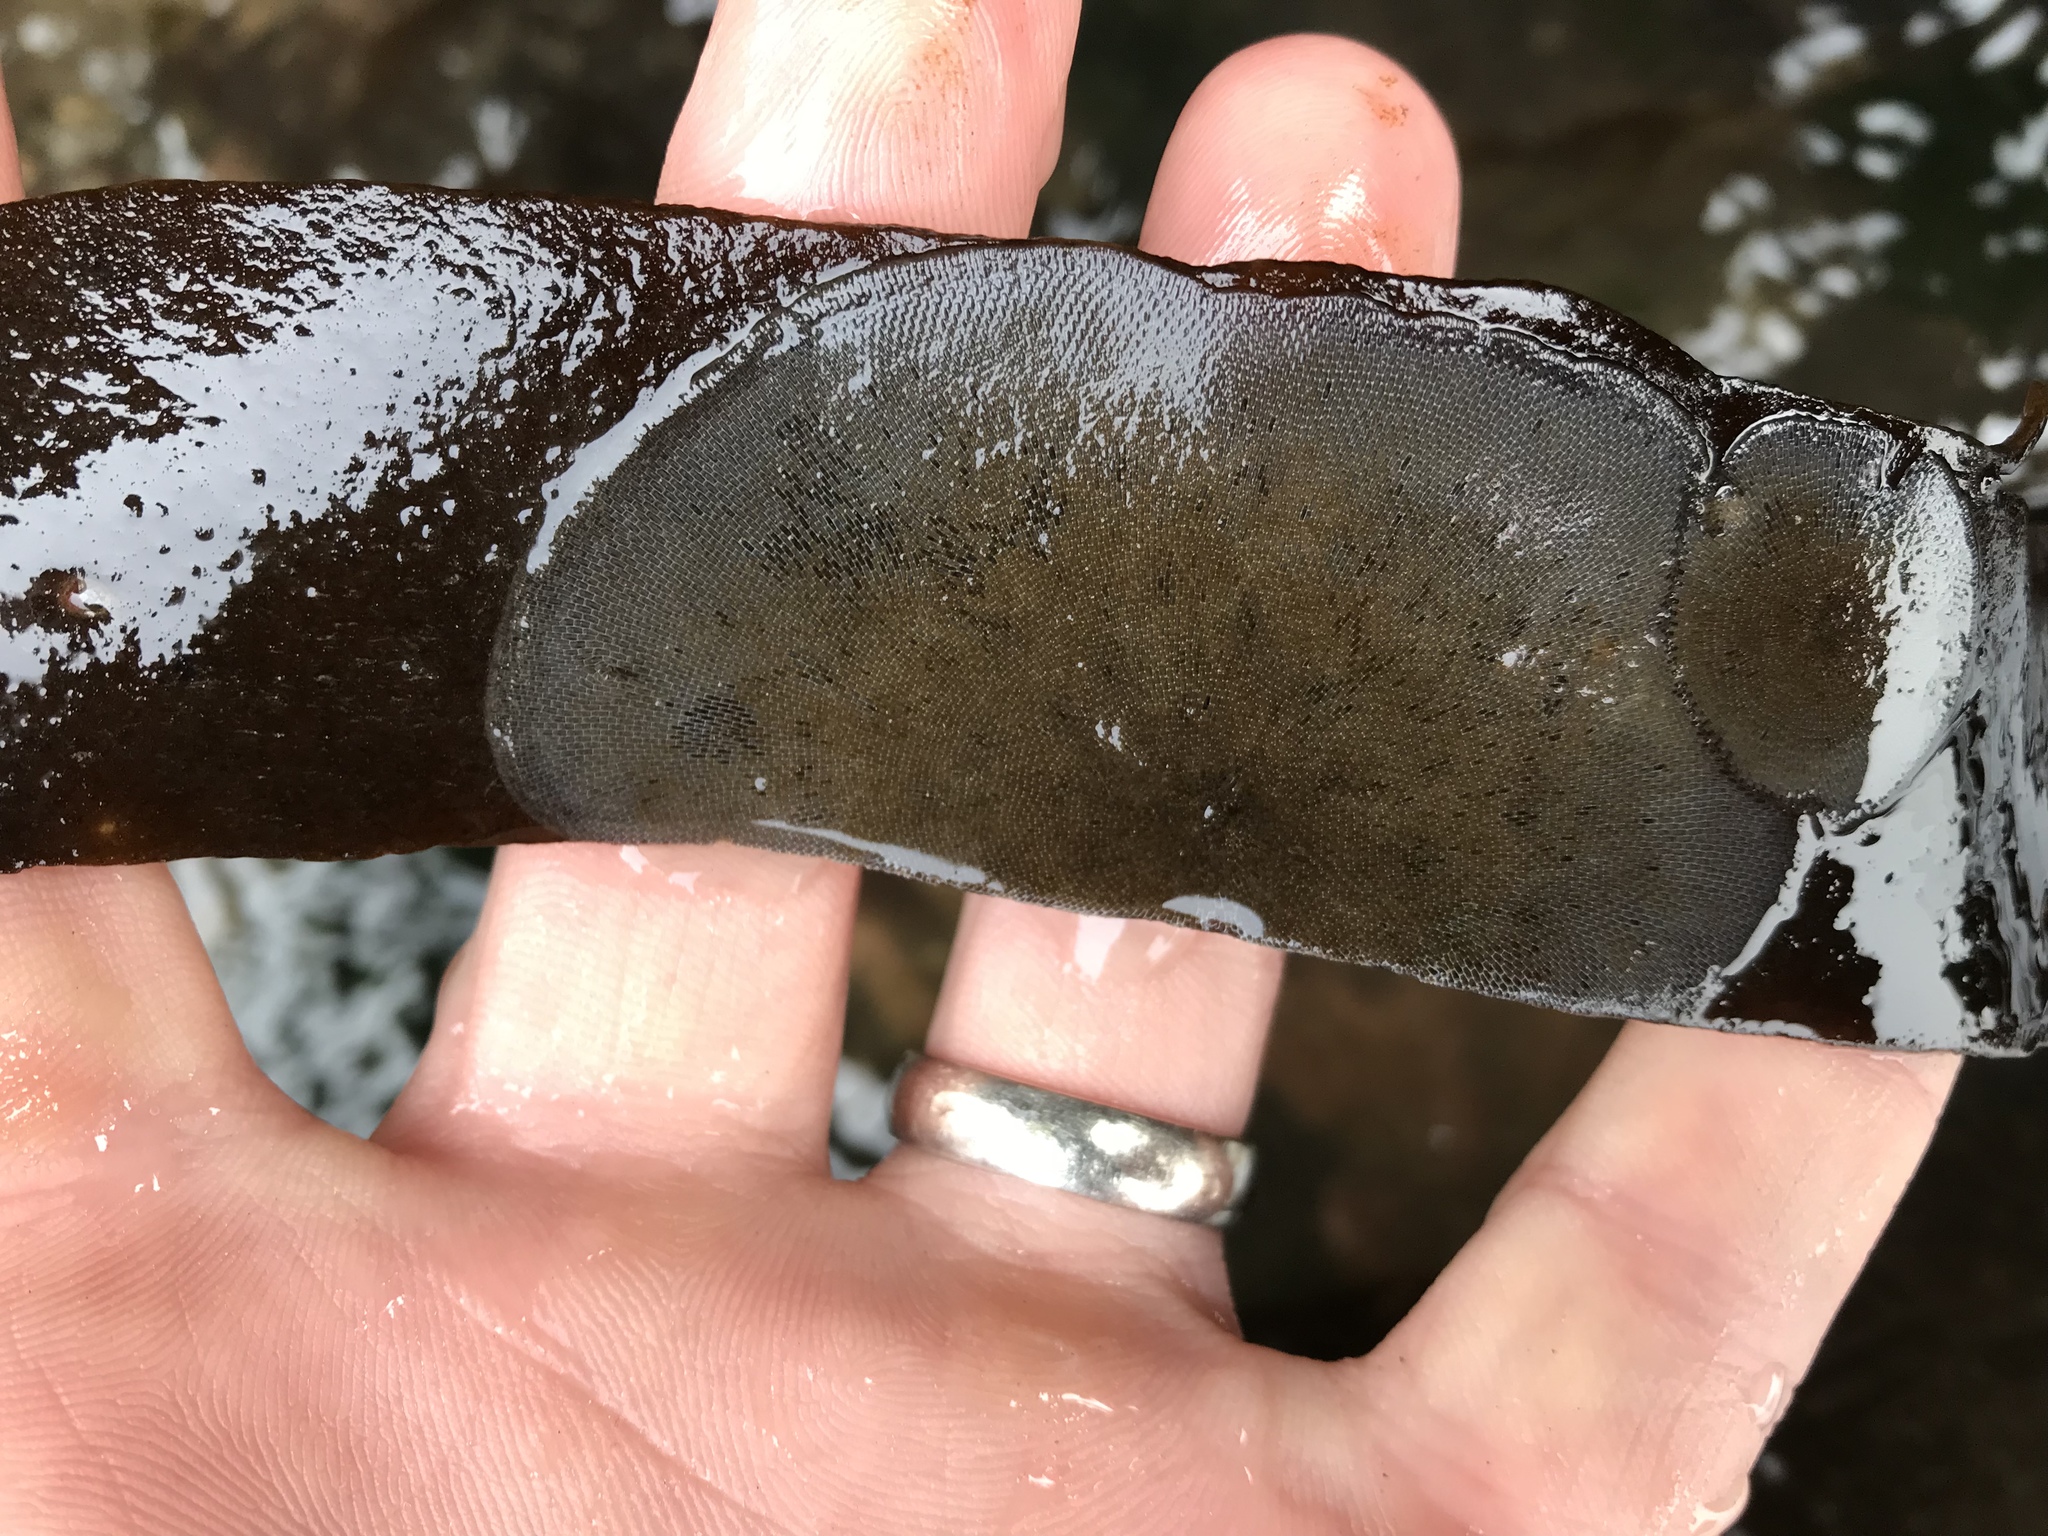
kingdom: Animalia
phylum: Bryozoa
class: Gymnolaemata
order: Cheilostomatida
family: Membraniporidae
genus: Membranipora
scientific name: Membranipora membranacea
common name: Sea mat
